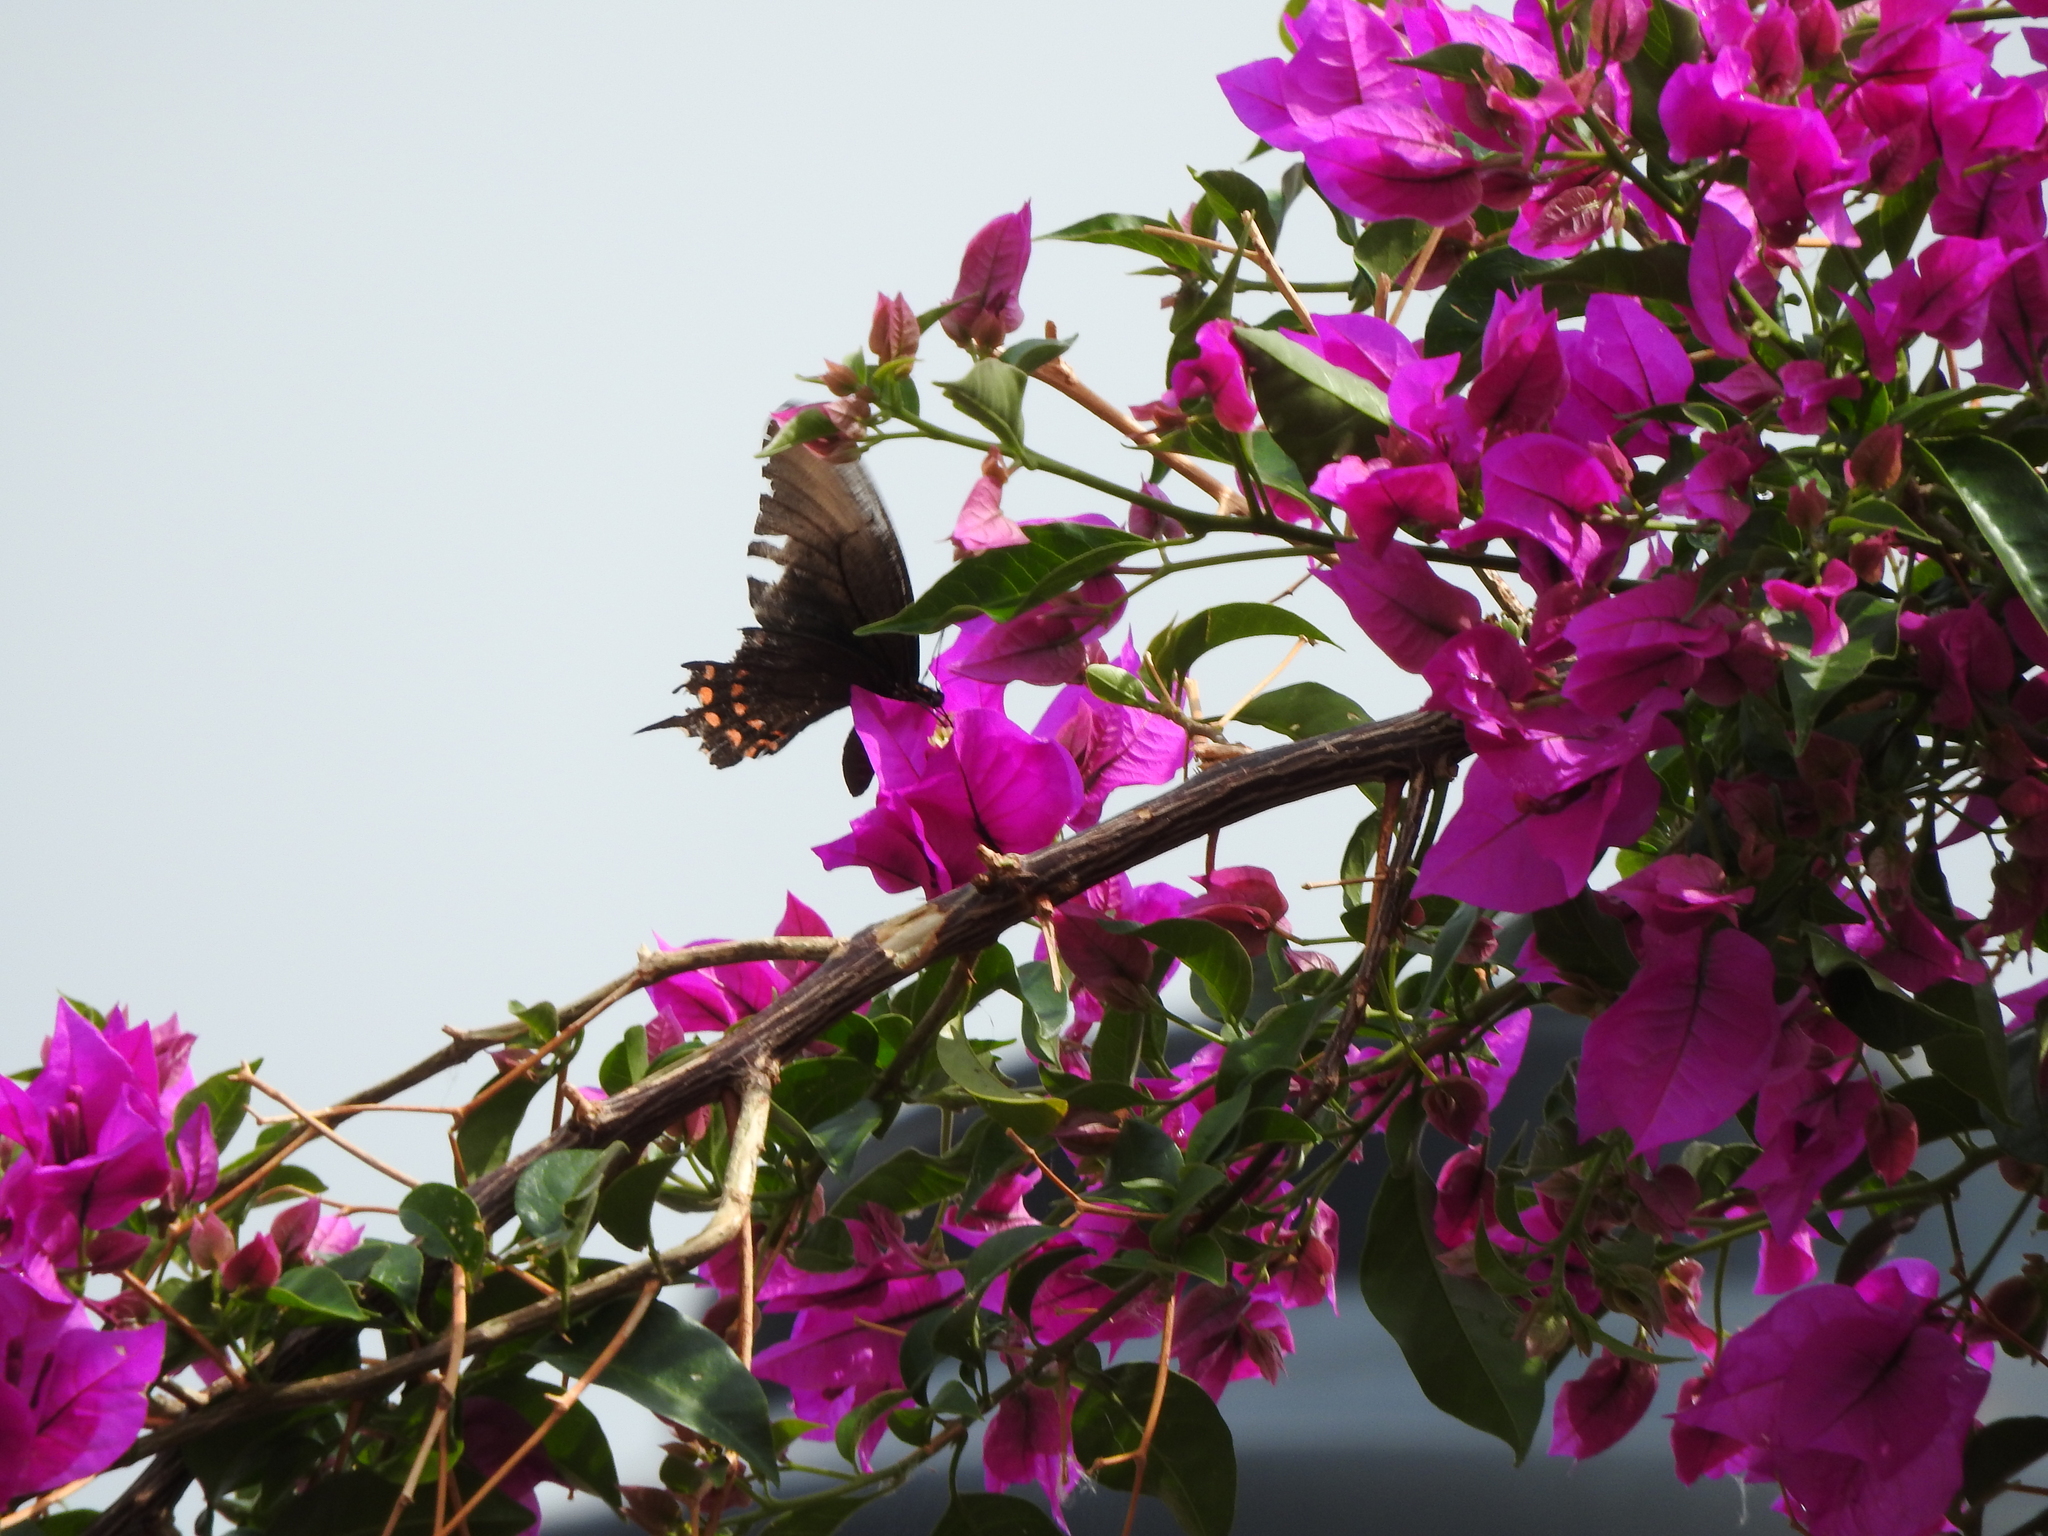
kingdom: Animalia
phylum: Arthropoda
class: Insecta
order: Lepidoptera
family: Papilionidae
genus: Heraclides
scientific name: Heraclides rogeri
